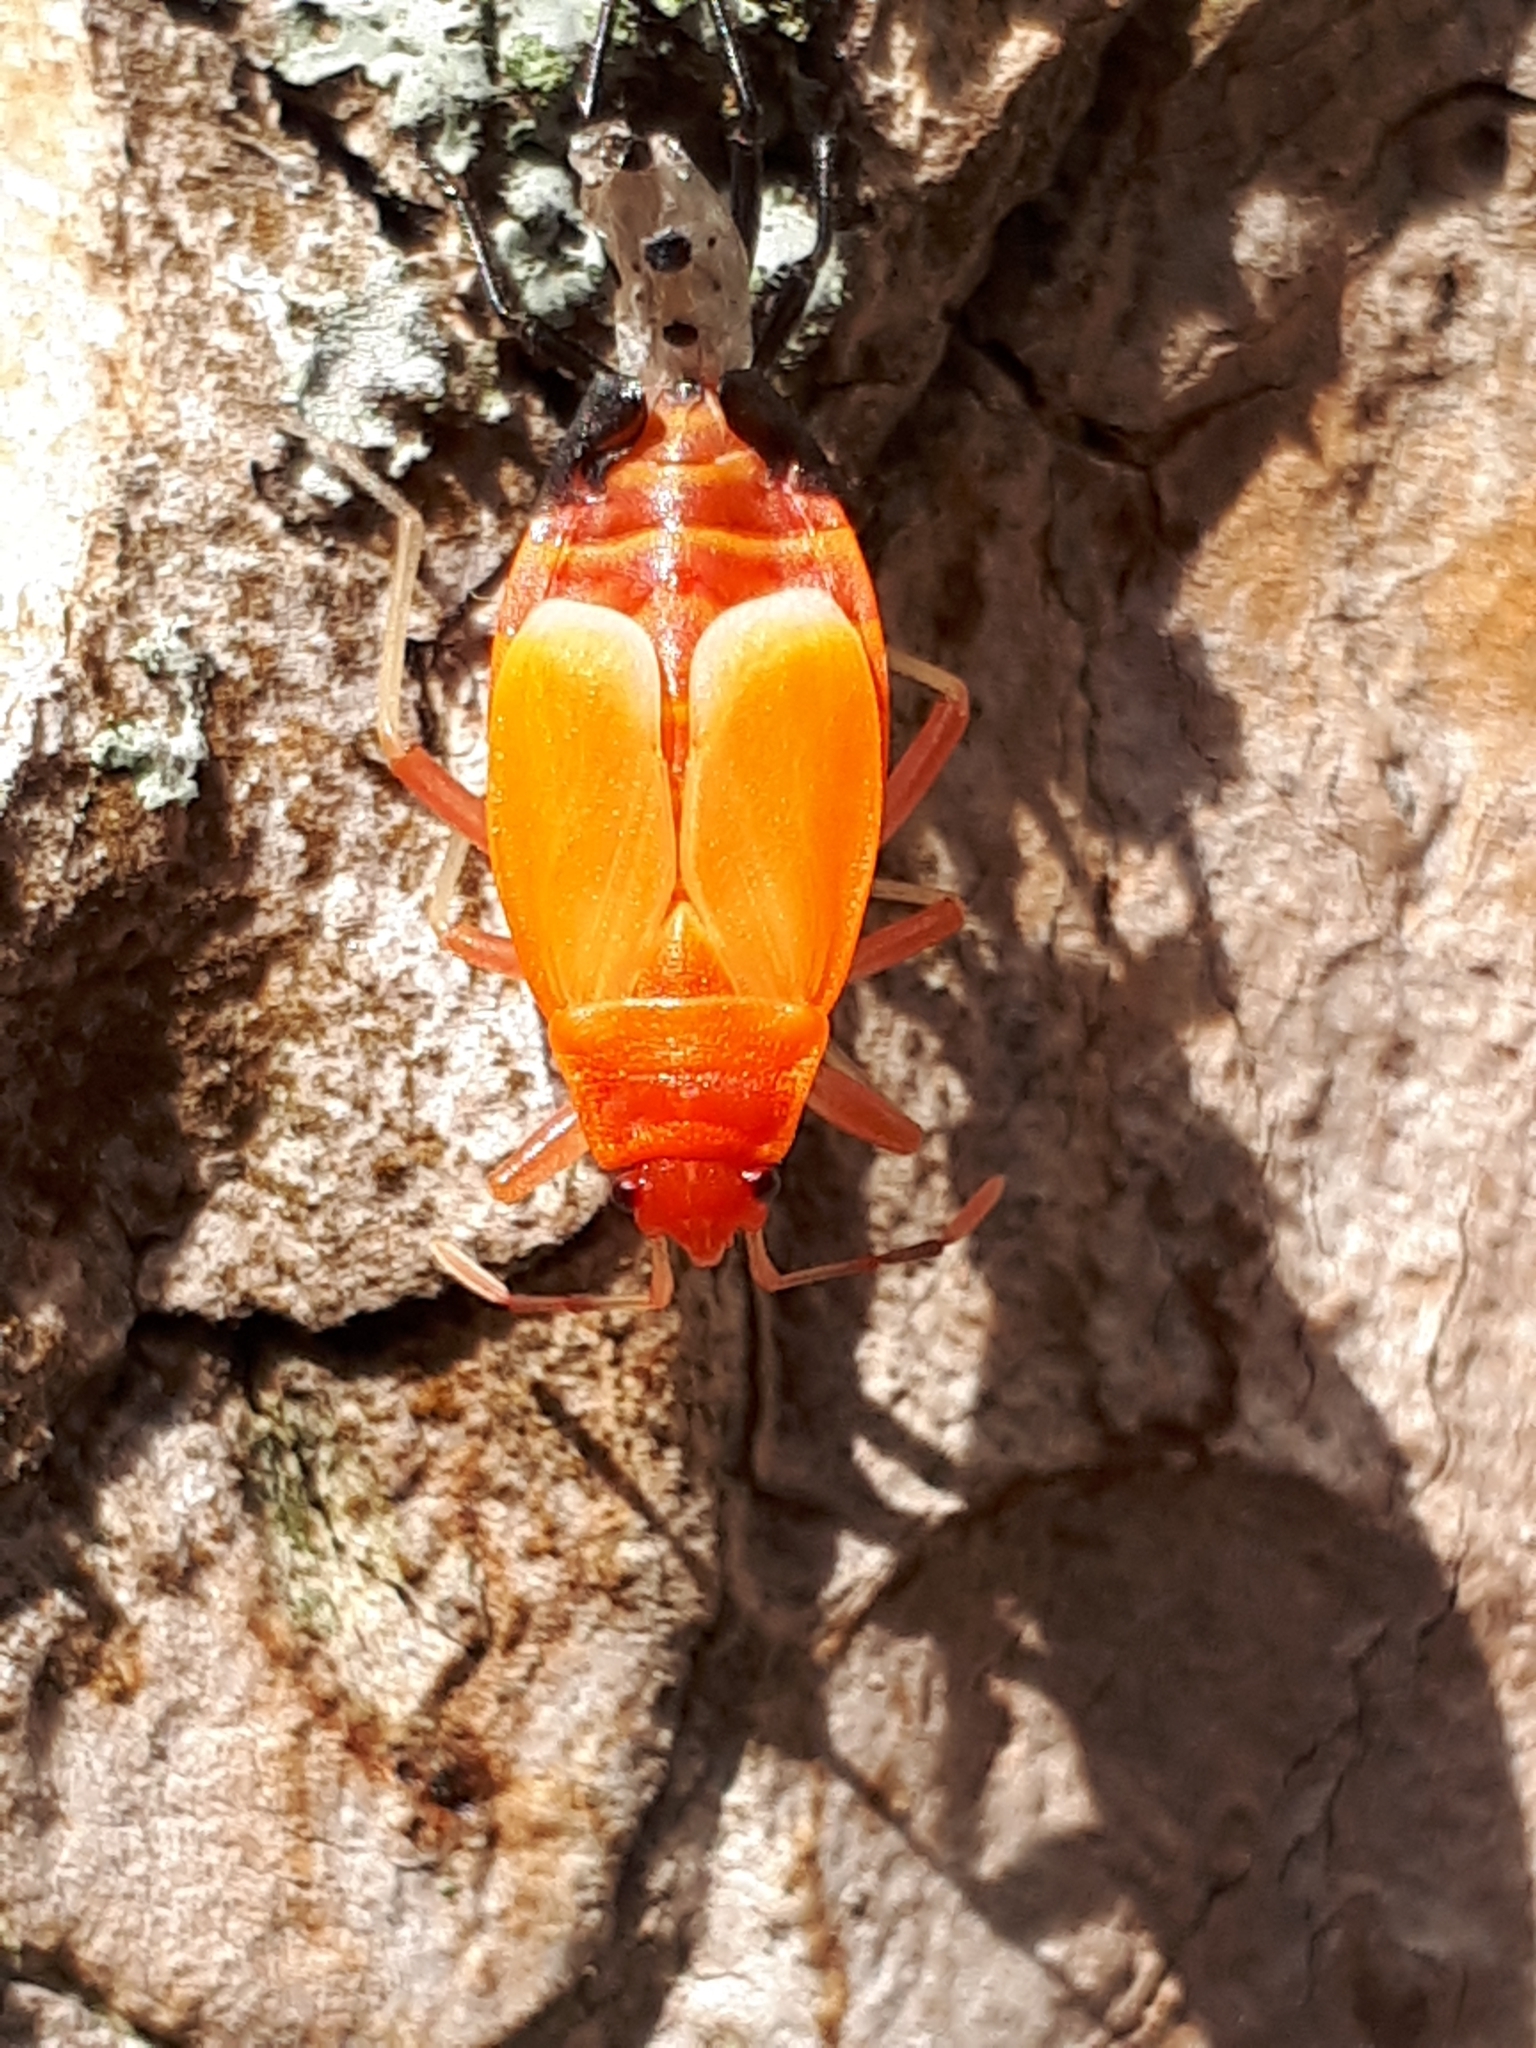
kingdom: Animalia
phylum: Arthropoda
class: Insecta
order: Hemiptera
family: Pyrrhocoridae
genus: Pyrrhocoris
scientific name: Pyrrhocoris apterus
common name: Firebug
